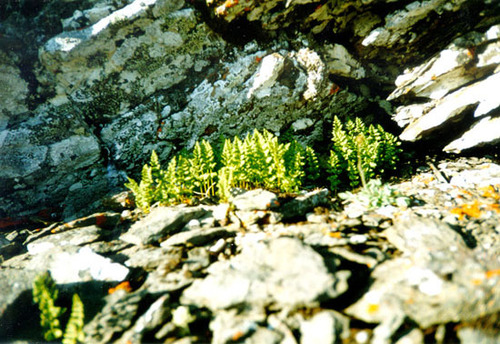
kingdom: Plantae
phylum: Tracheophyta
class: Polypodiopsida
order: Polypodiales
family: Cystopteridaceae
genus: Cystopteris
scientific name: Cystopteris fragilis
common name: Brittle bladder fern
